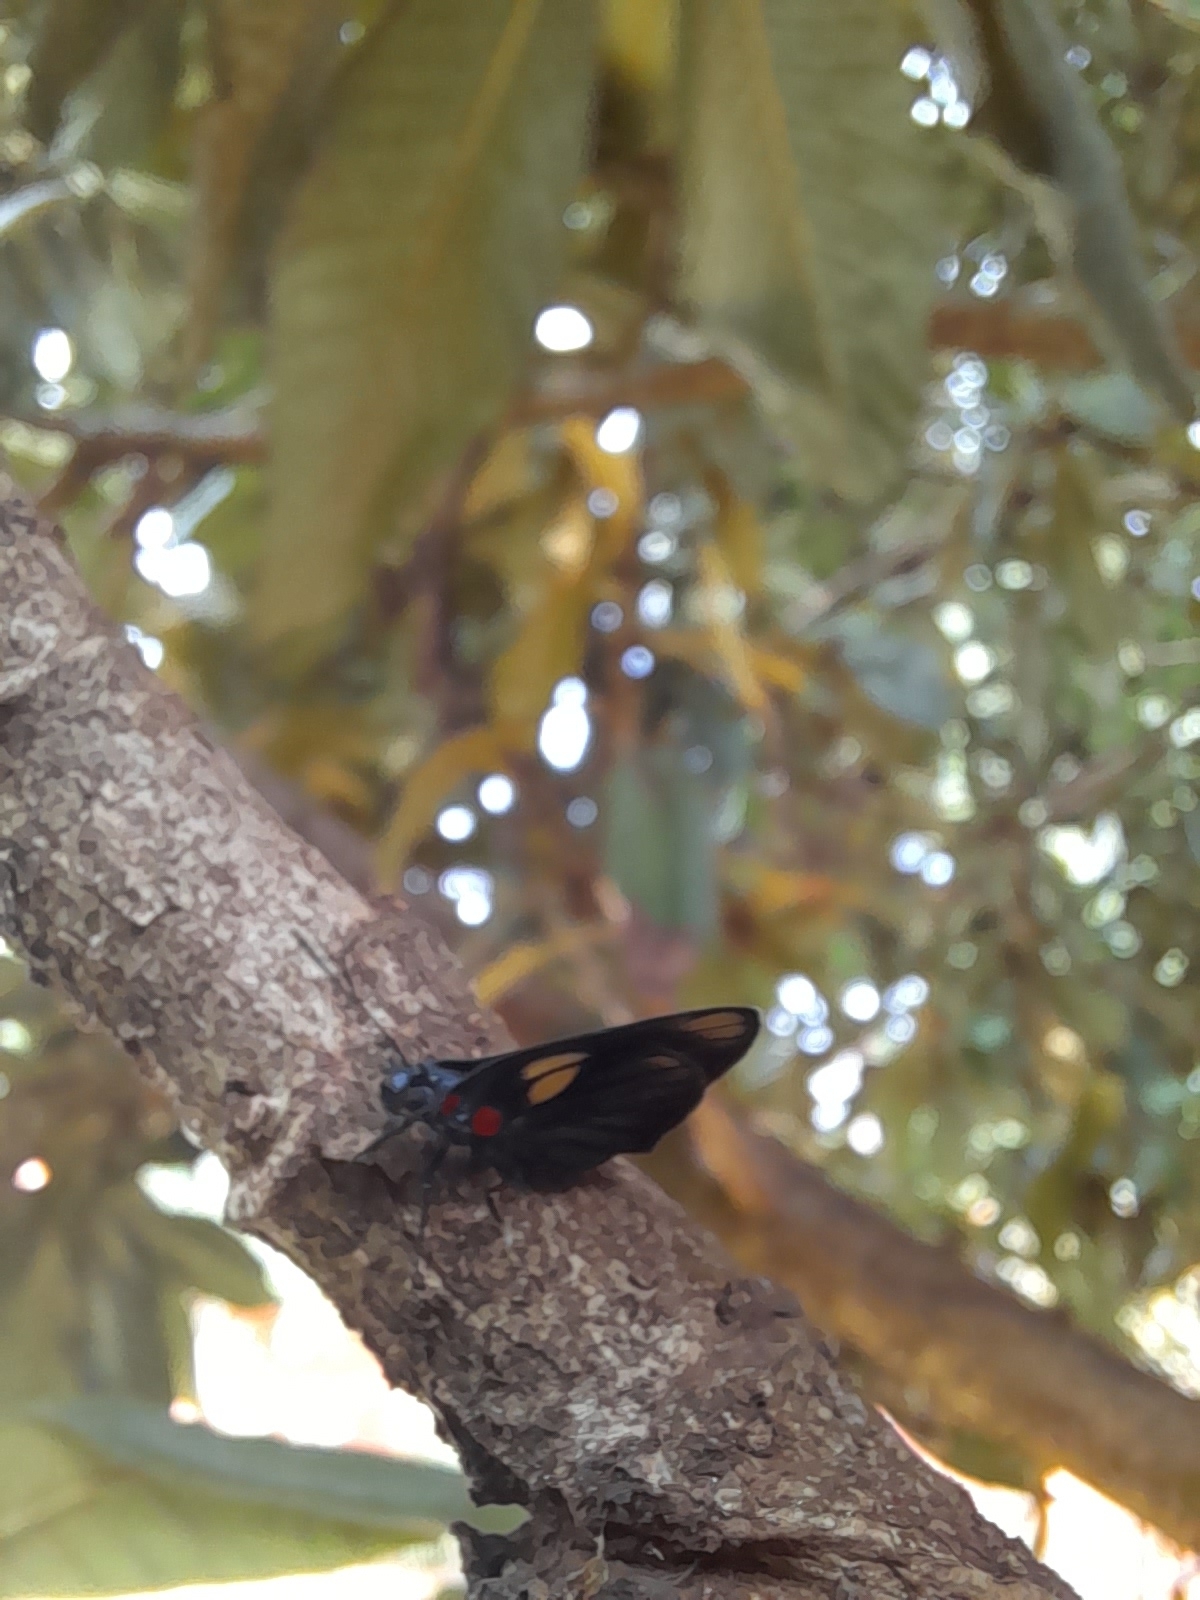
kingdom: Animalia
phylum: Arthropoda
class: Insecta
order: Lepidoptera
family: Lycaenidae
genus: Thecla
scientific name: Thecla schausi
